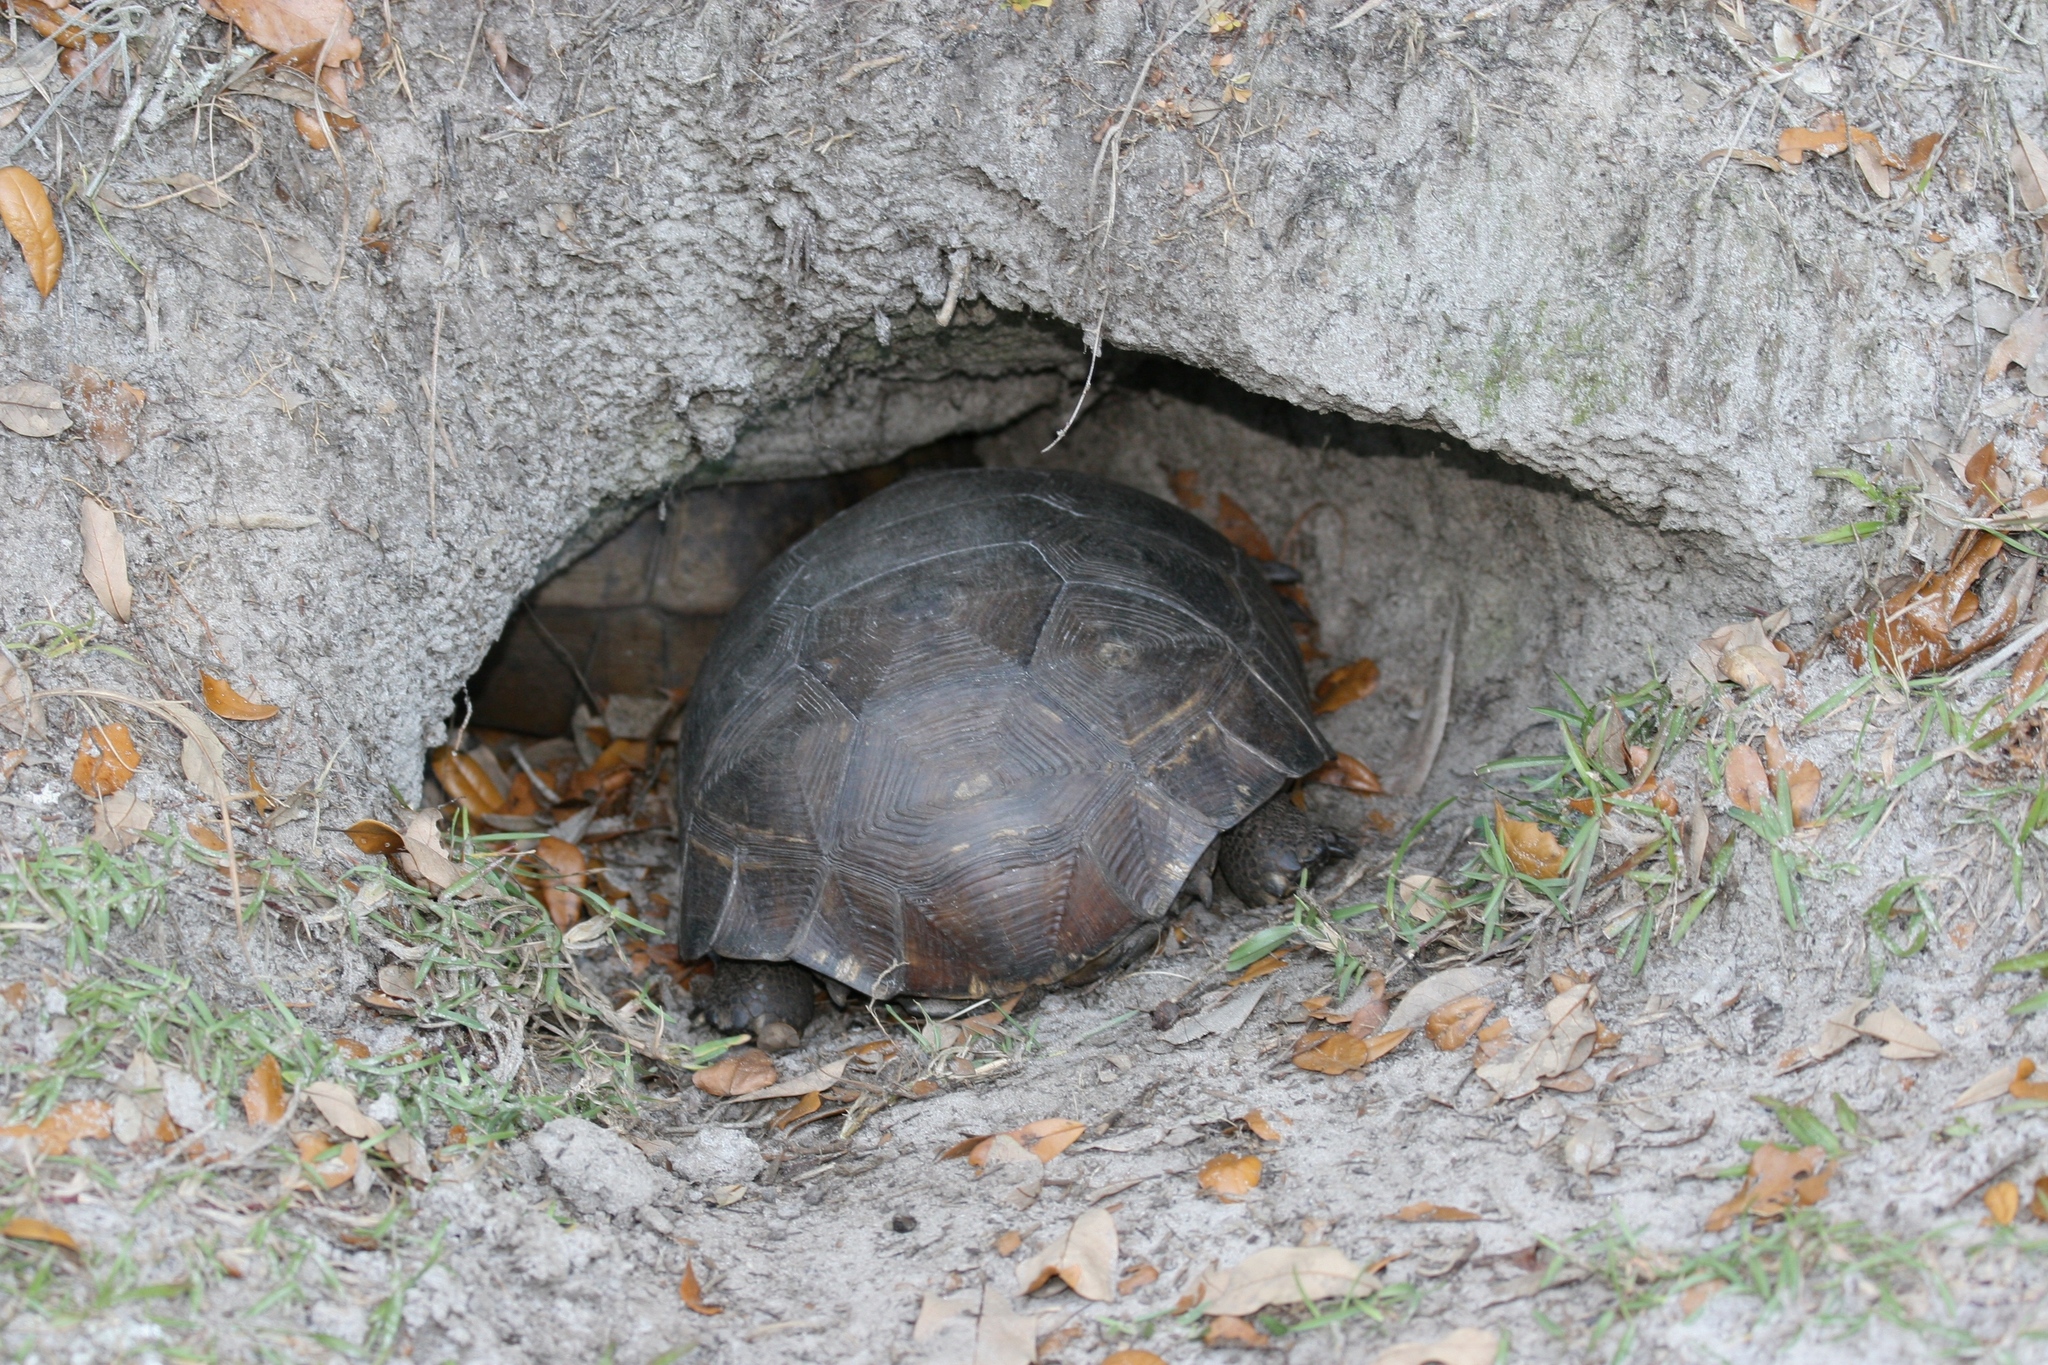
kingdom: Animalia
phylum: Chordata
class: Testudines
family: Testudinidae
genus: Gopherus
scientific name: Gopherus polyphemus
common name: Florida gopher tortoise
